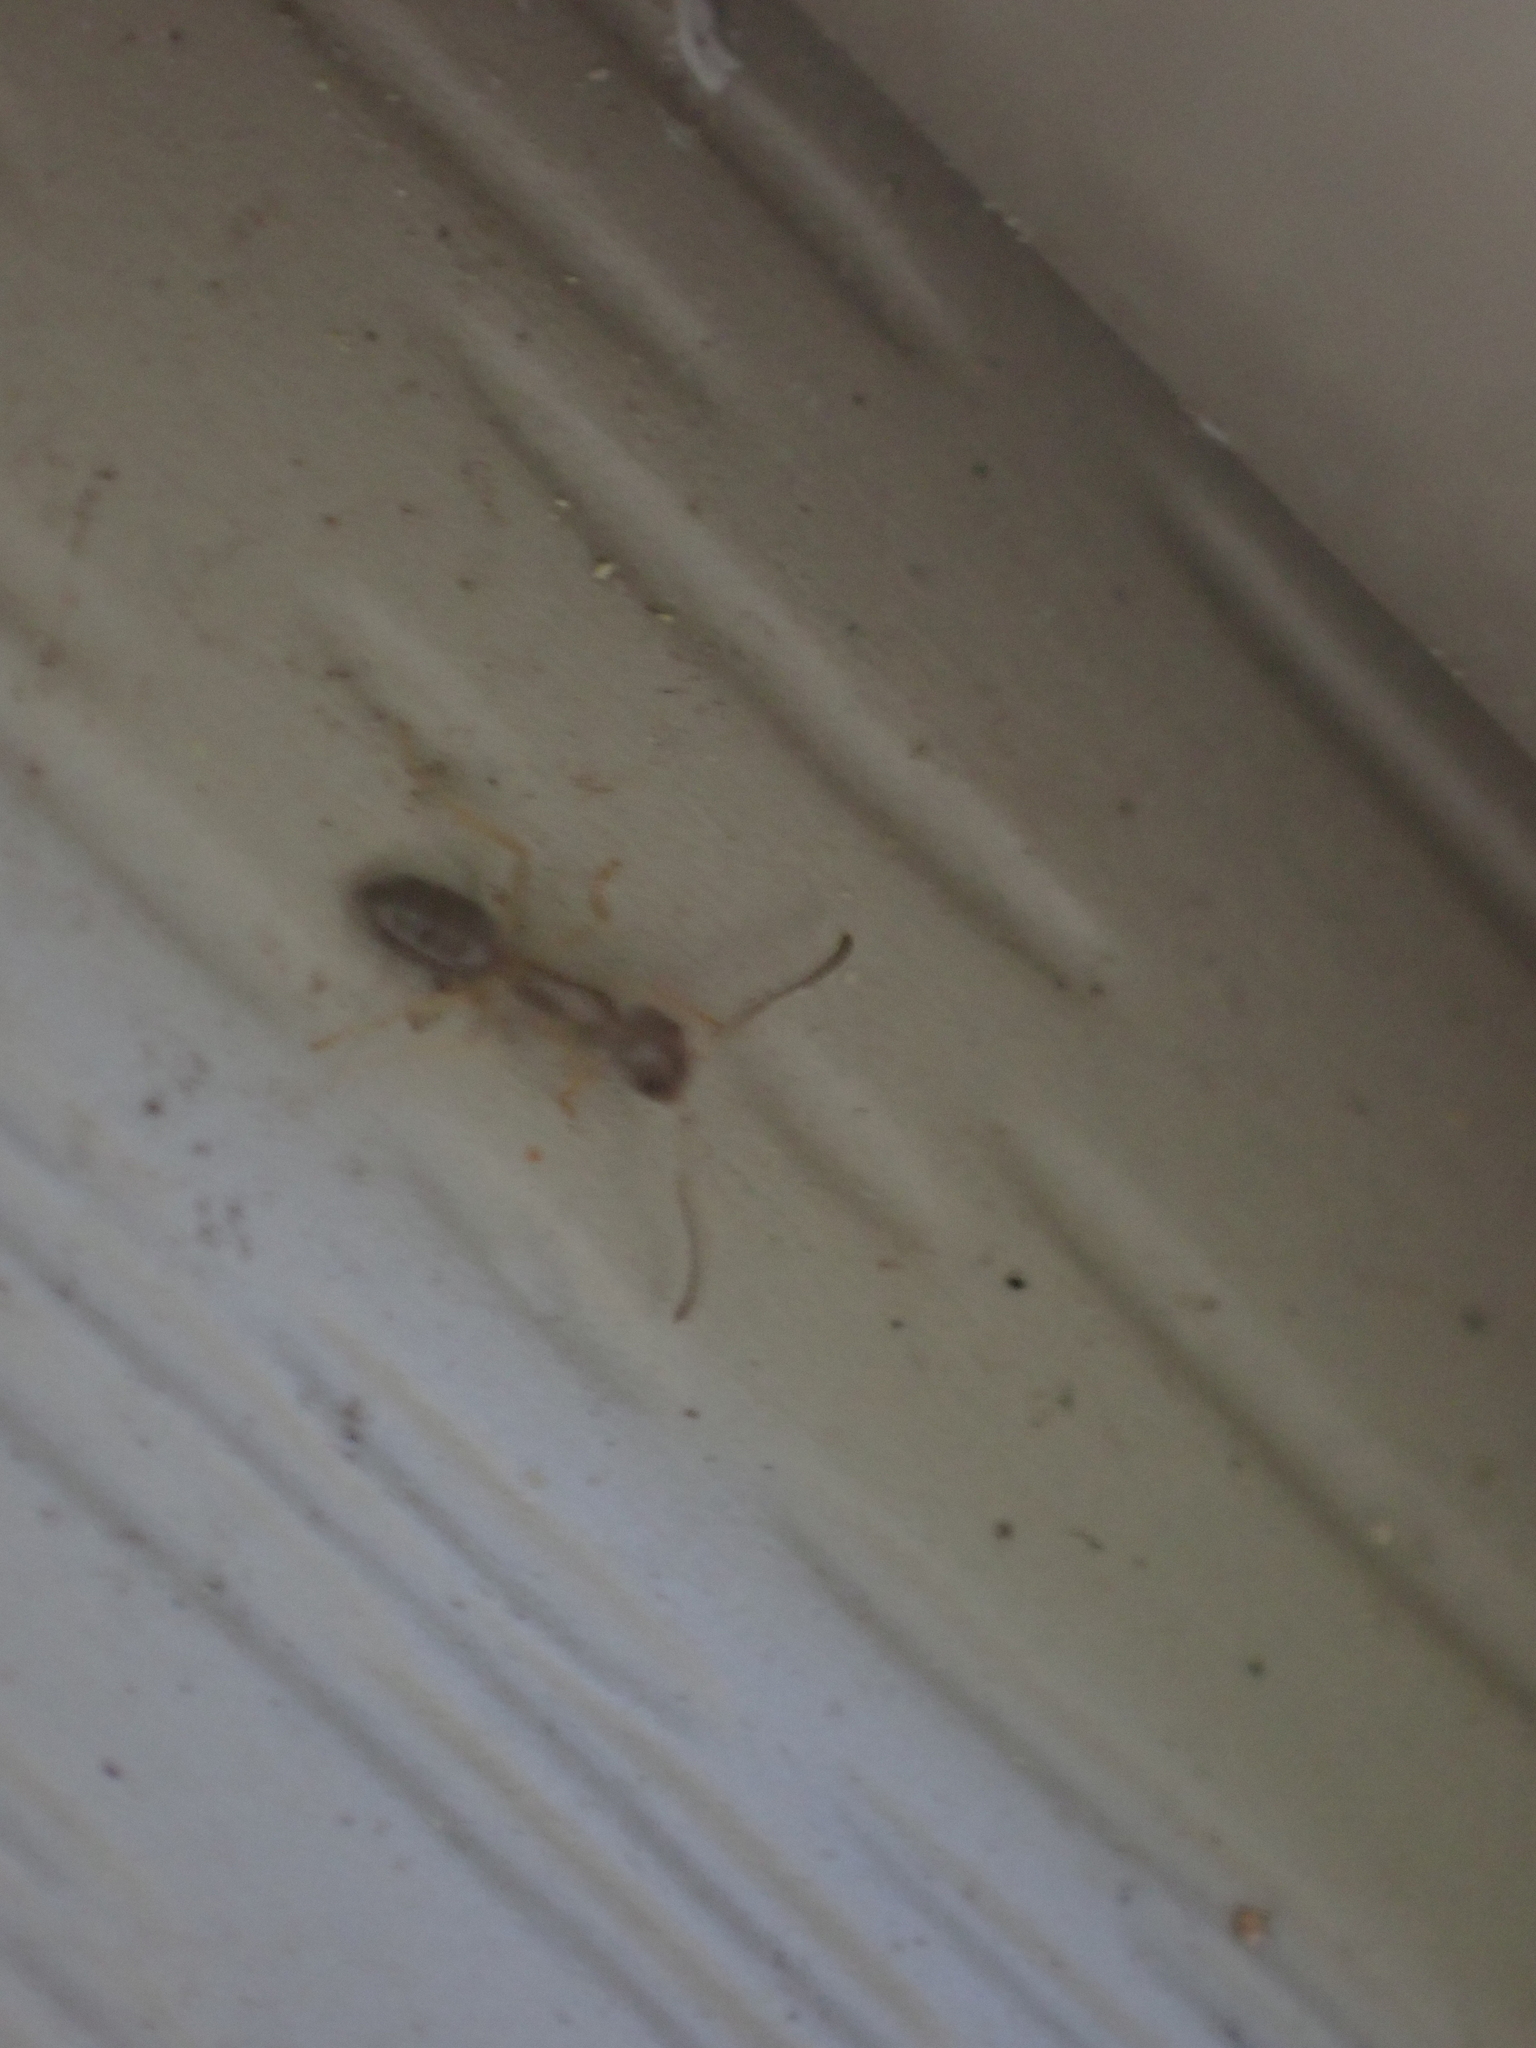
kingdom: Animalia
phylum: Arthropoda
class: Insecta
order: Hymenoptera
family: Formicidae
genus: Tapinoma
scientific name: Tapinoma sessile
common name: Odorous house ant
